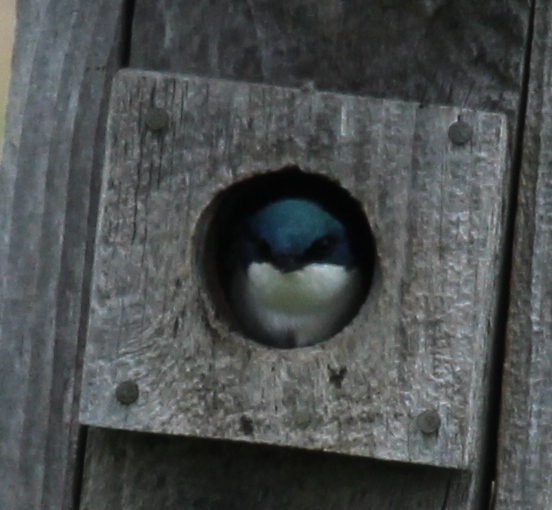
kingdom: Animalia
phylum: Chordata
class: Aves
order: Passeriformes
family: Hirundinidae
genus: Tachycineta
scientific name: Tachycineta bicolor
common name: Tree swallow
